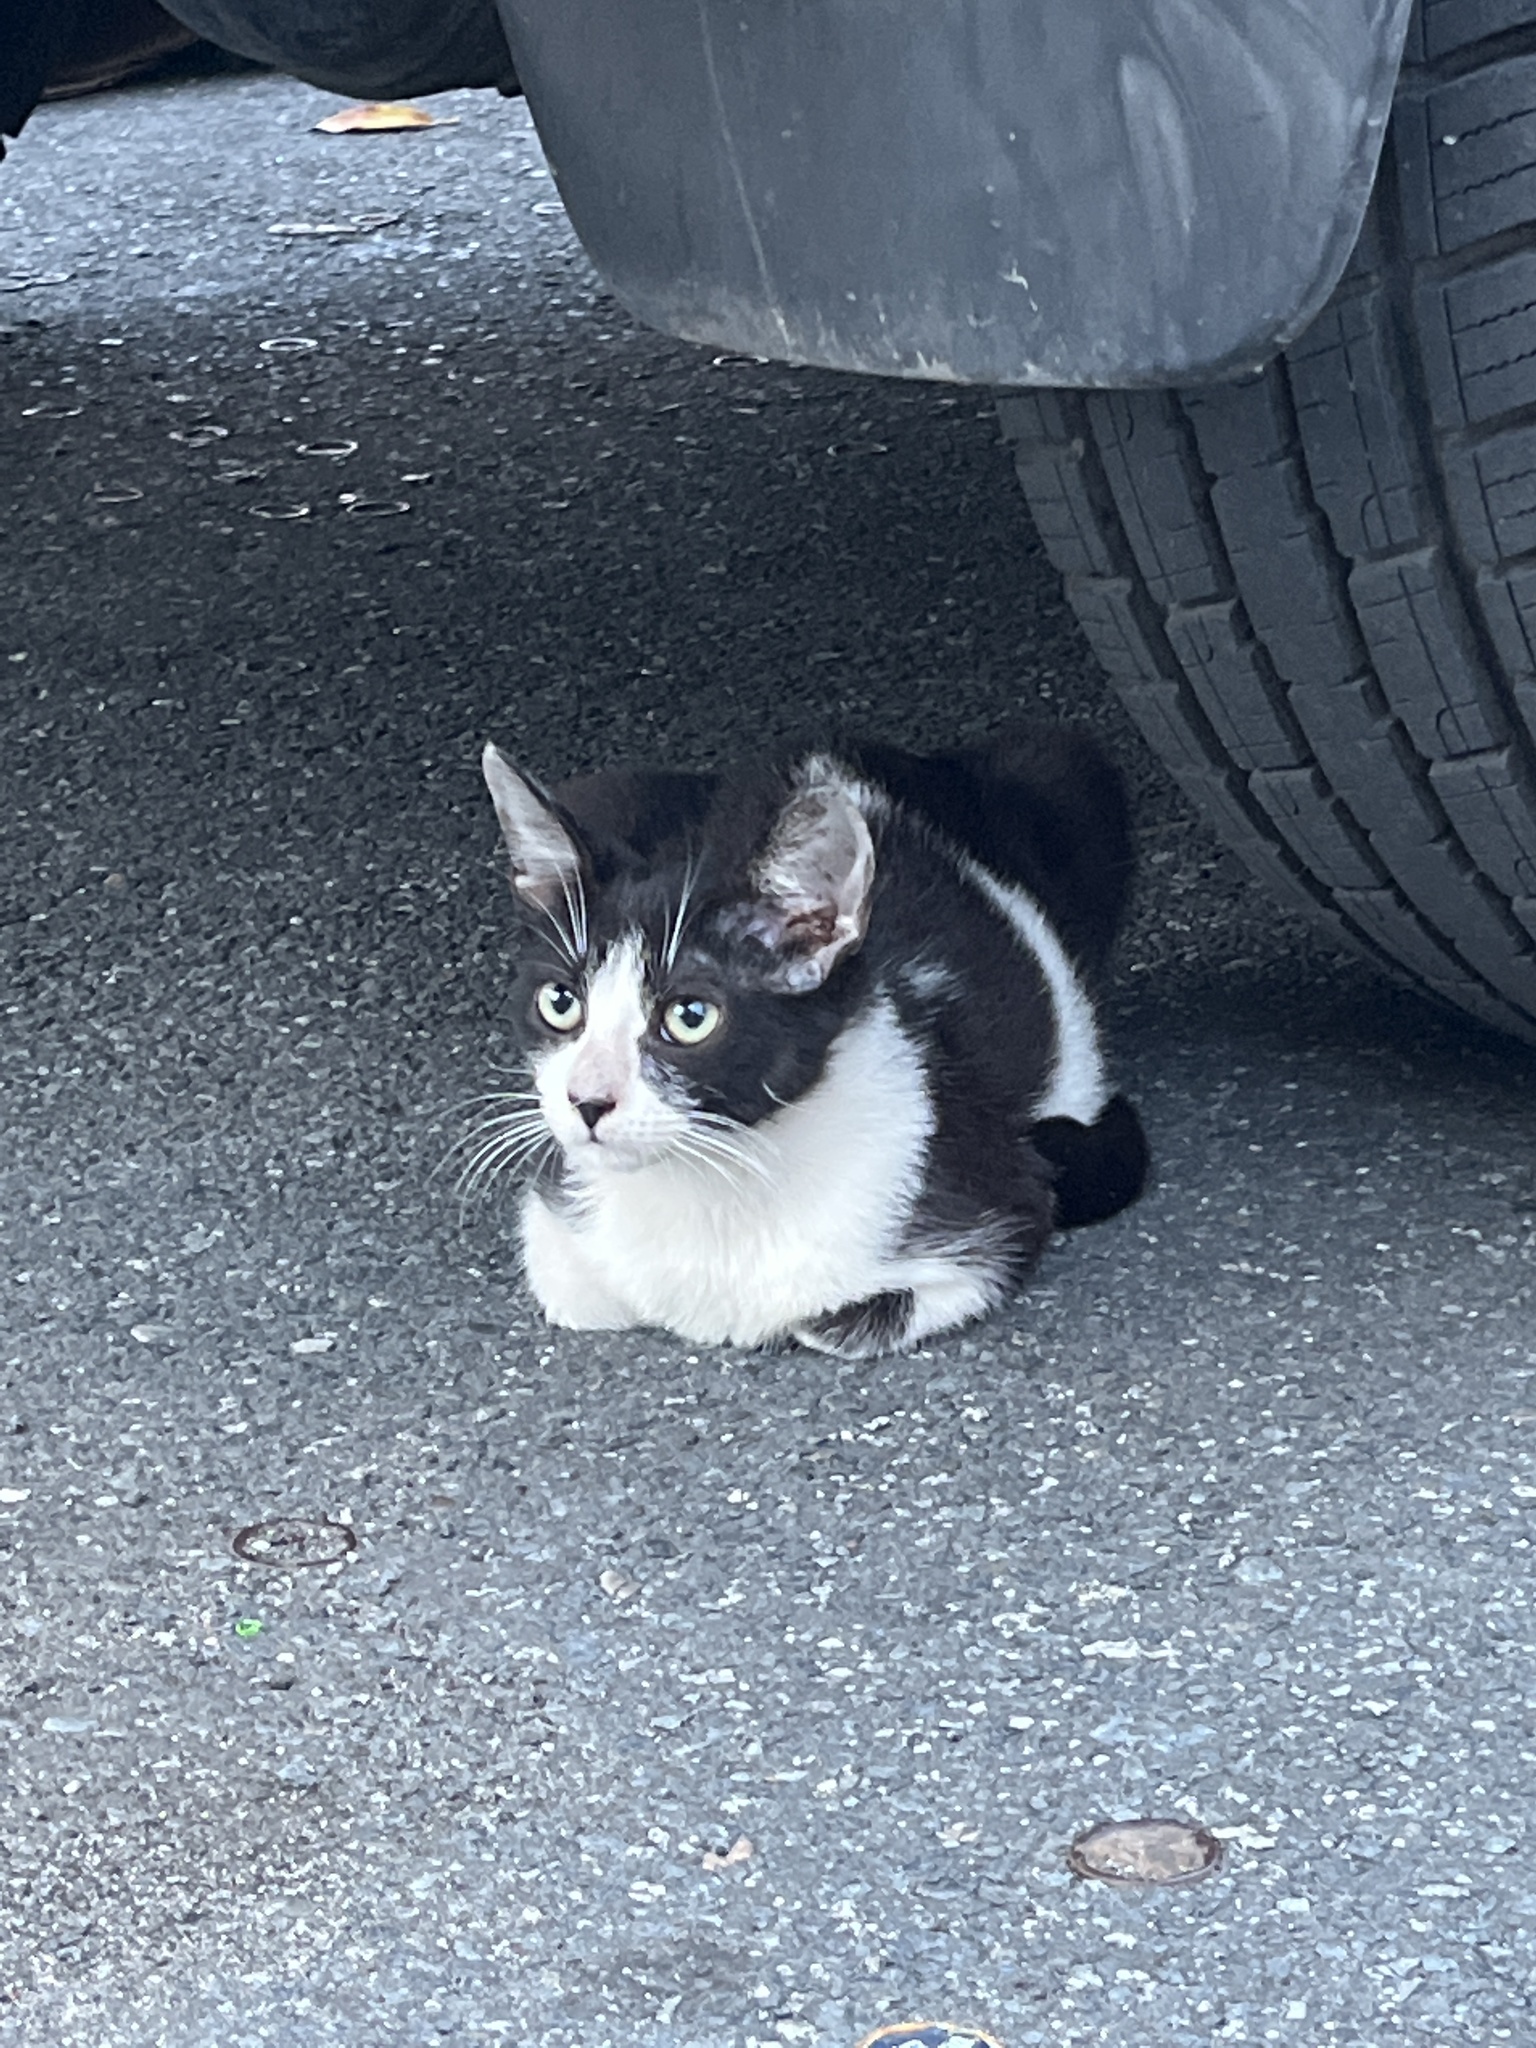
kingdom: Animalia
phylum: Chordata
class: Mammalia
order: Carnivora
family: Felidae
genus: Felis
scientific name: Felis catus
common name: Domestic cat
